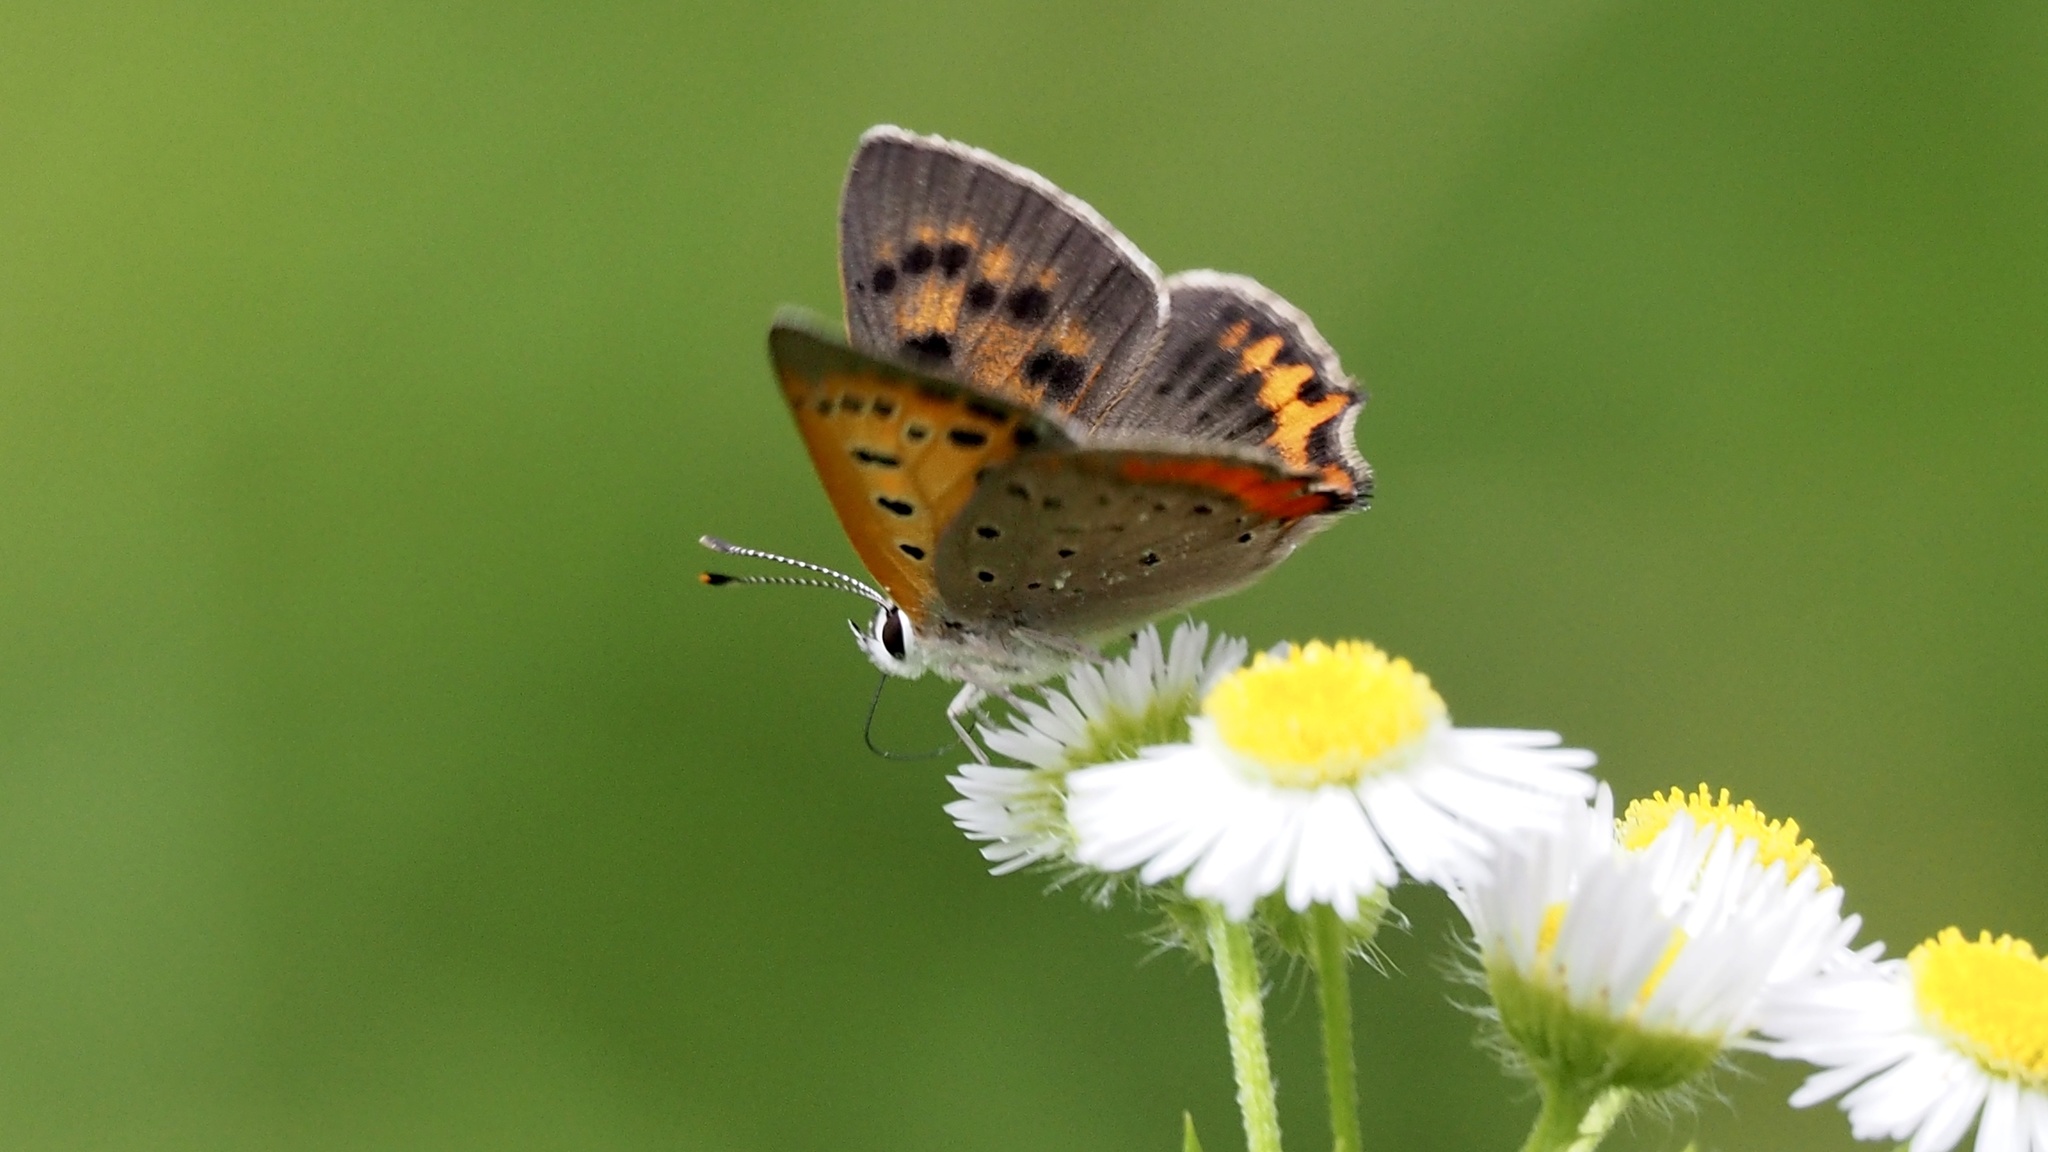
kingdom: Animalia
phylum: Arthropoda
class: Insecta
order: Lepidoptera
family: Lycaenidae
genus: Lycaena
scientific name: Lycaena phlaeas
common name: Small copper
